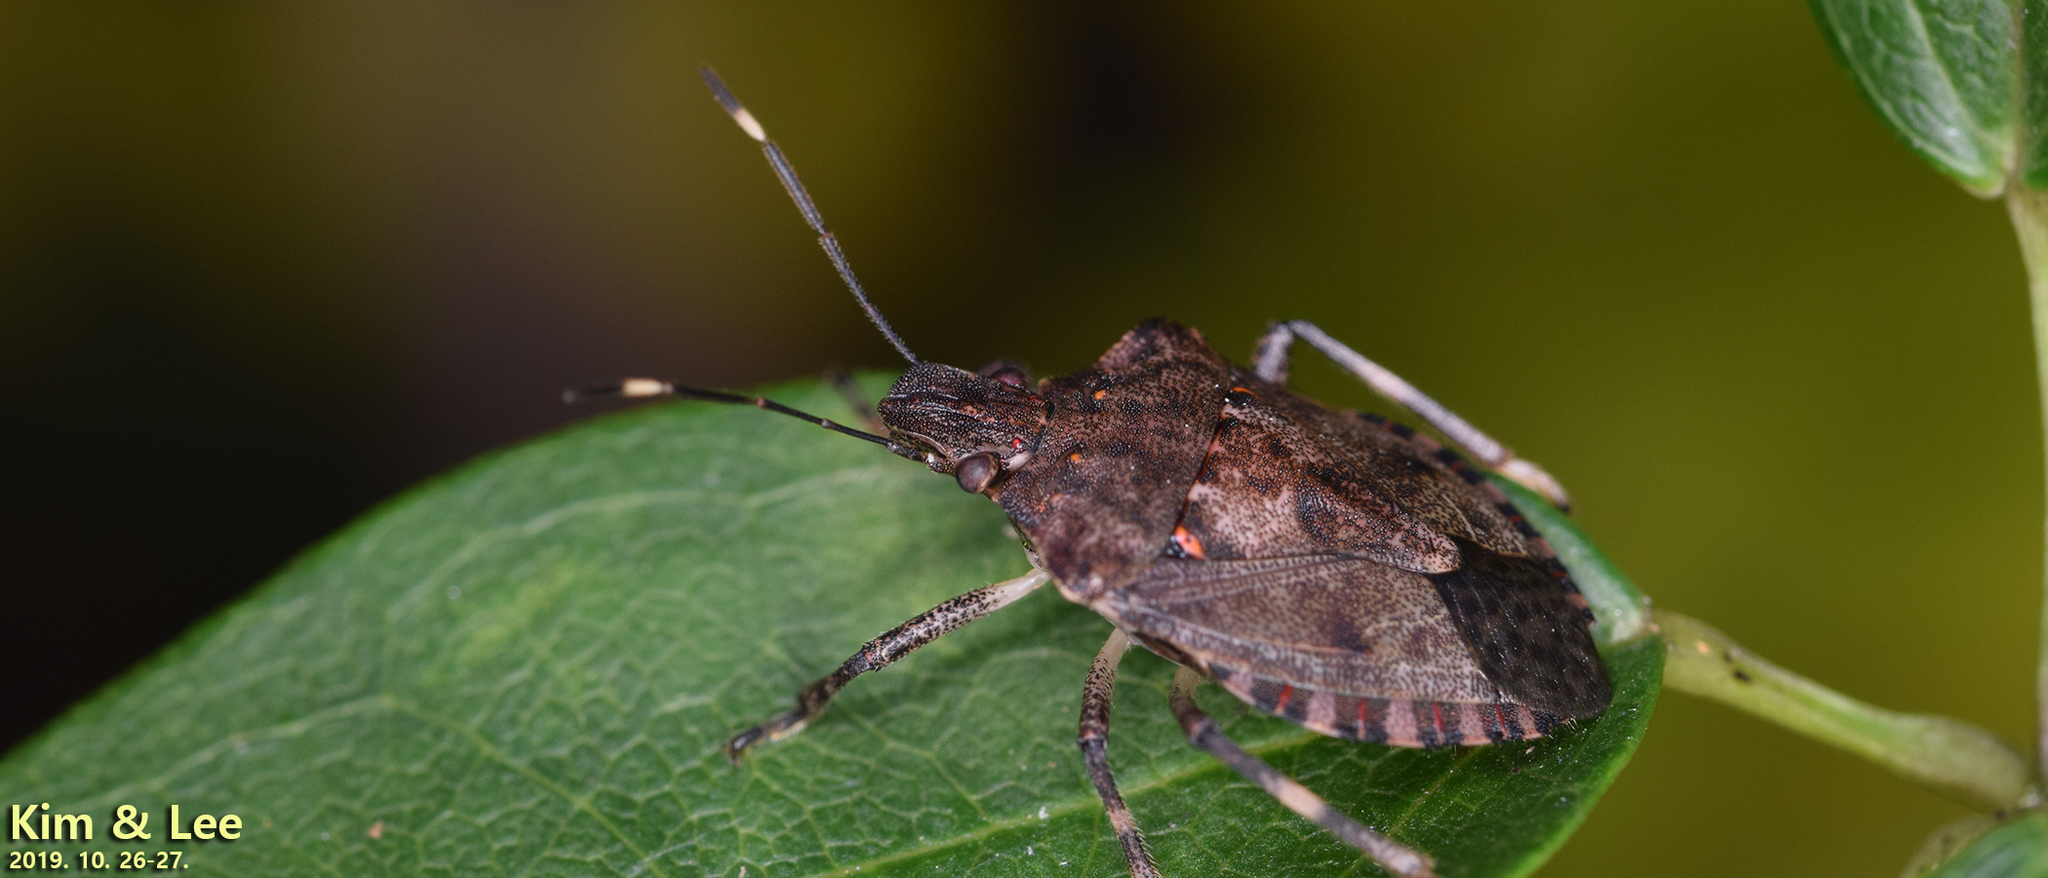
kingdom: Animalia
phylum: Arthropoda
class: Insecta
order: Hemiptera
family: Pentatomidae
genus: Homalogonia
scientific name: Homalogonia
